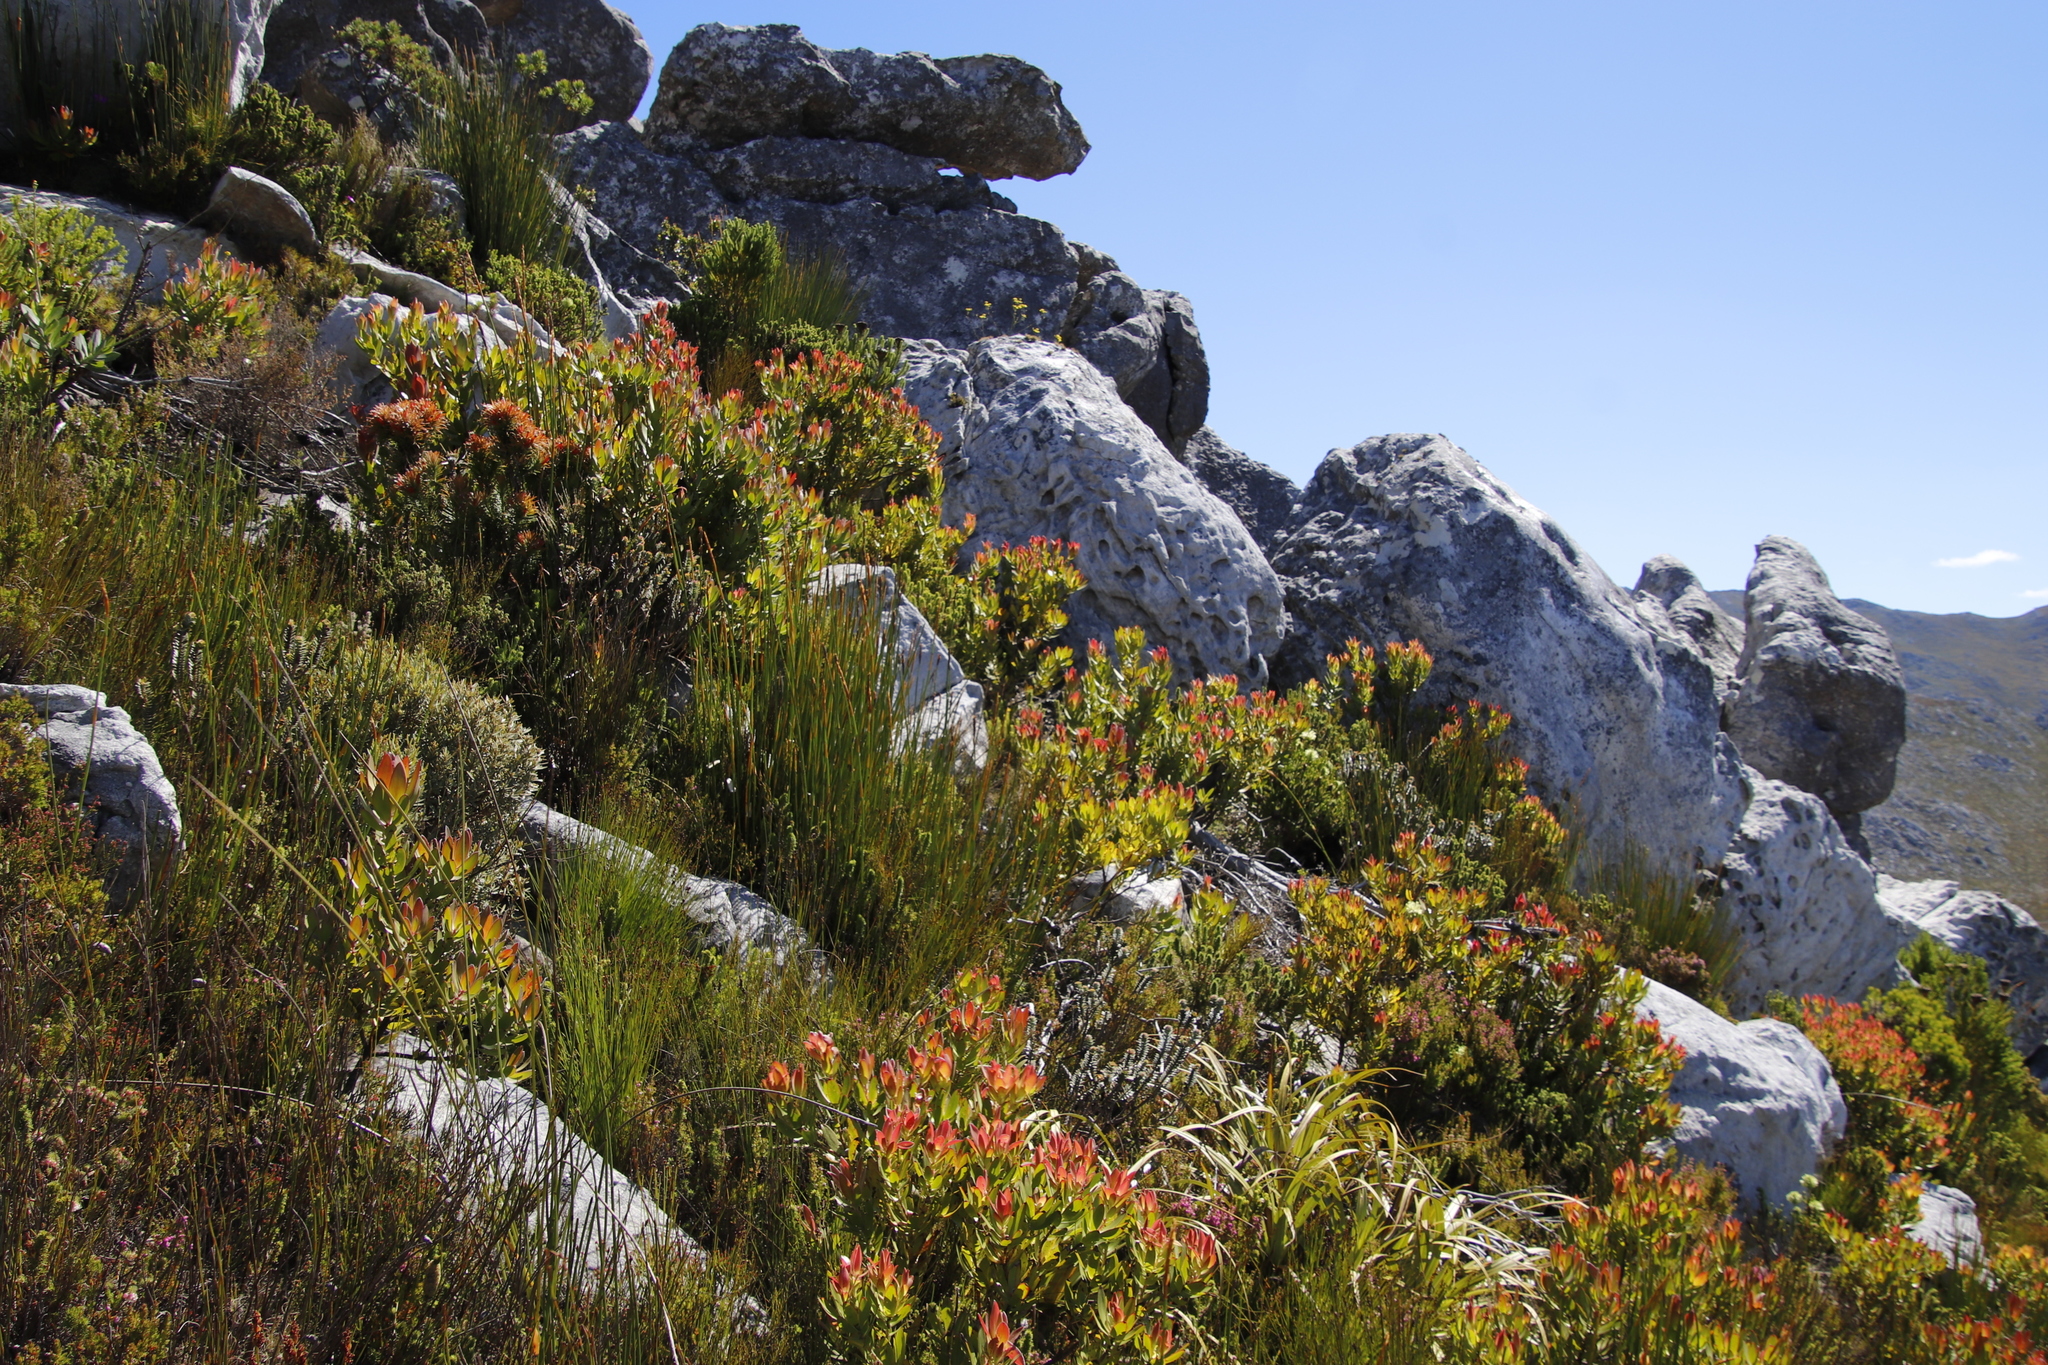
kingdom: Plantae
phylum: Tracheophyta
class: Magnoliopsida
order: Lamiales
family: Stilbaceae
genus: Retzia
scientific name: Retzia capensis
